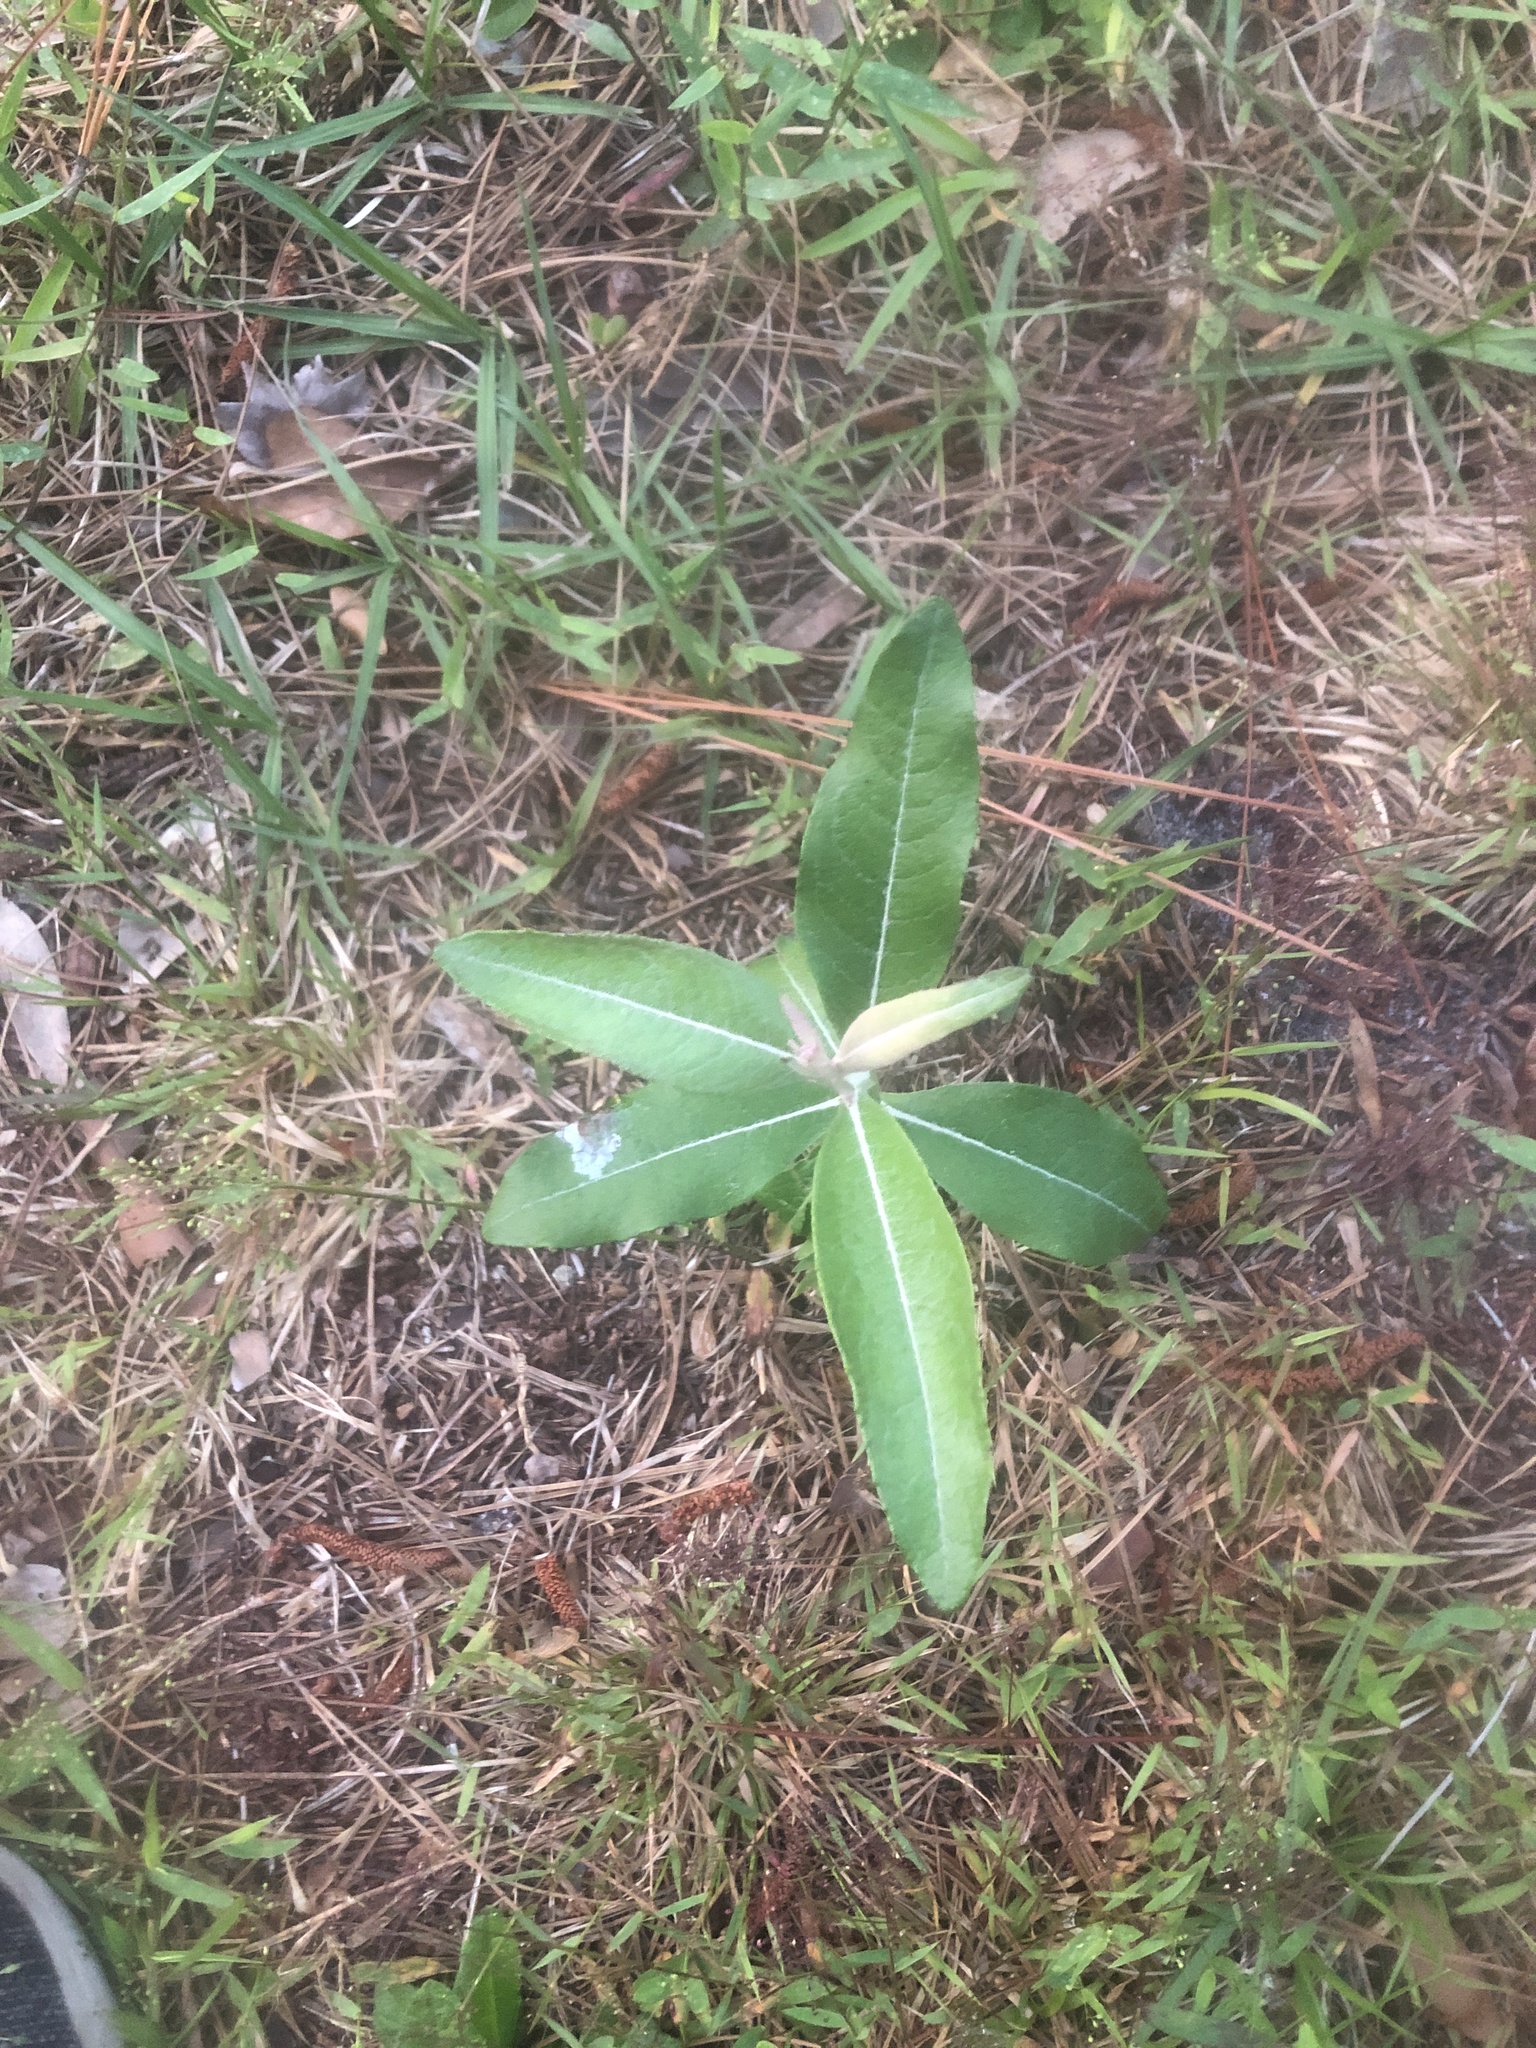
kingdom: Plantae
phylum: Tracheophyta
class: Magnoliopsida
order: Asterales
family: Asteraceae
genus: Pterocaulon
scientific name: Pterocaulon pycnostachyum
